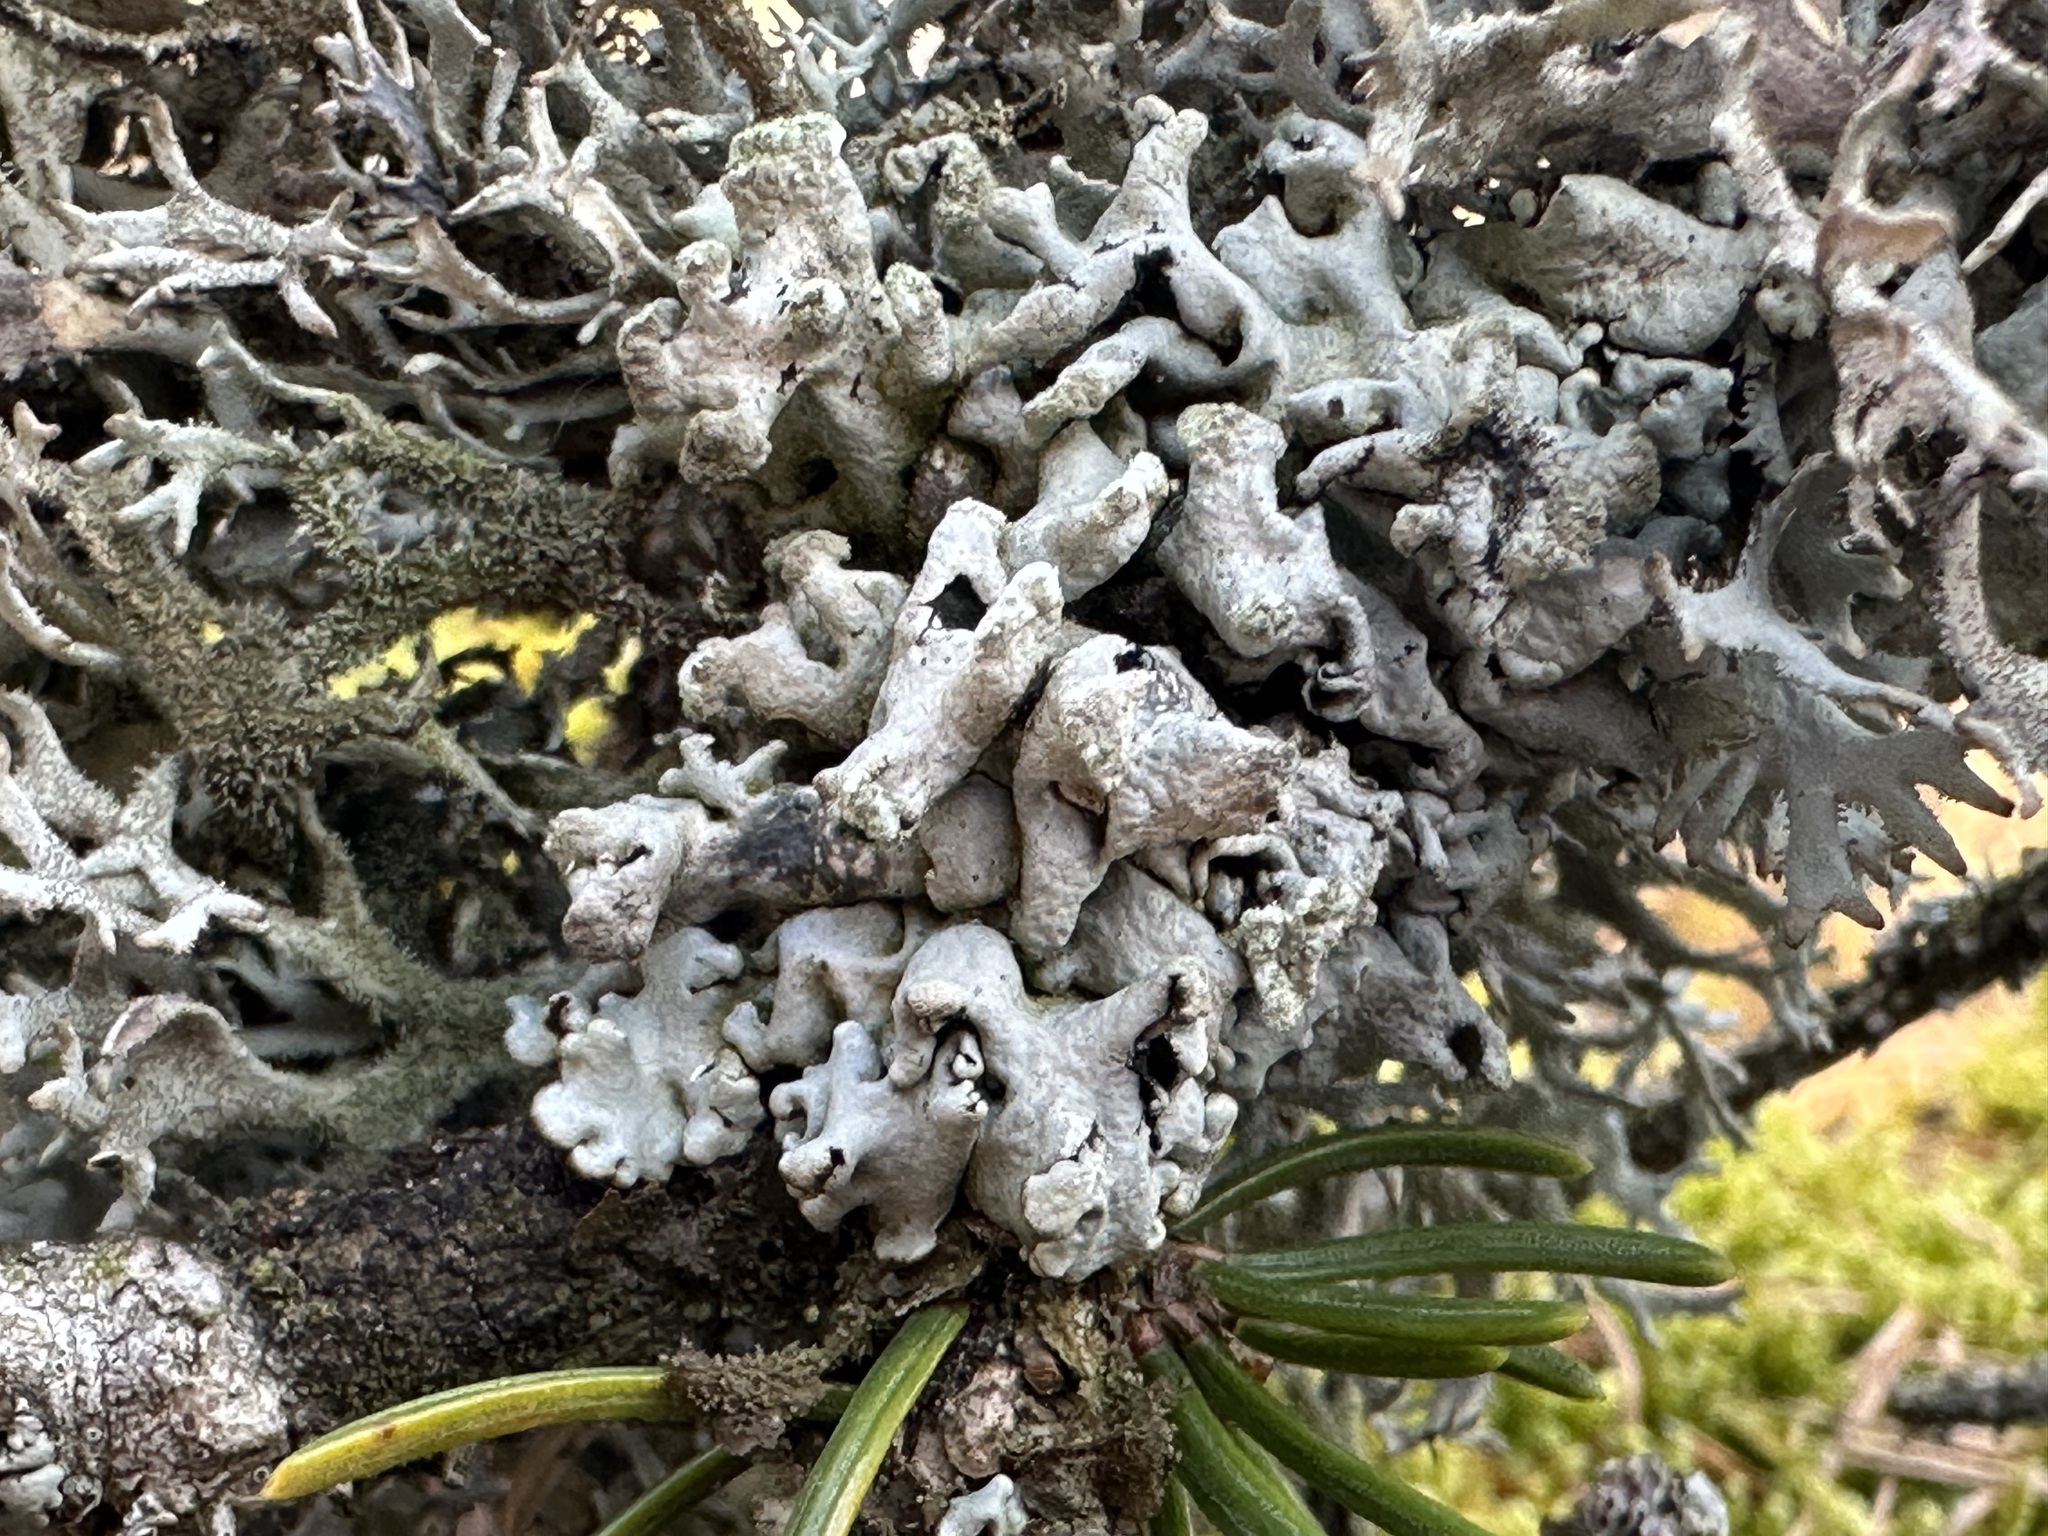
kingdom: Fungi
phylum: Ascomycota
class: Lecanoromycetes
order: Lecanorales
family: Parmeliaceae
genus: Hypogymnia
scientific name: Hypogymnia tubulosa
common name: Powder-headed tube lichen
